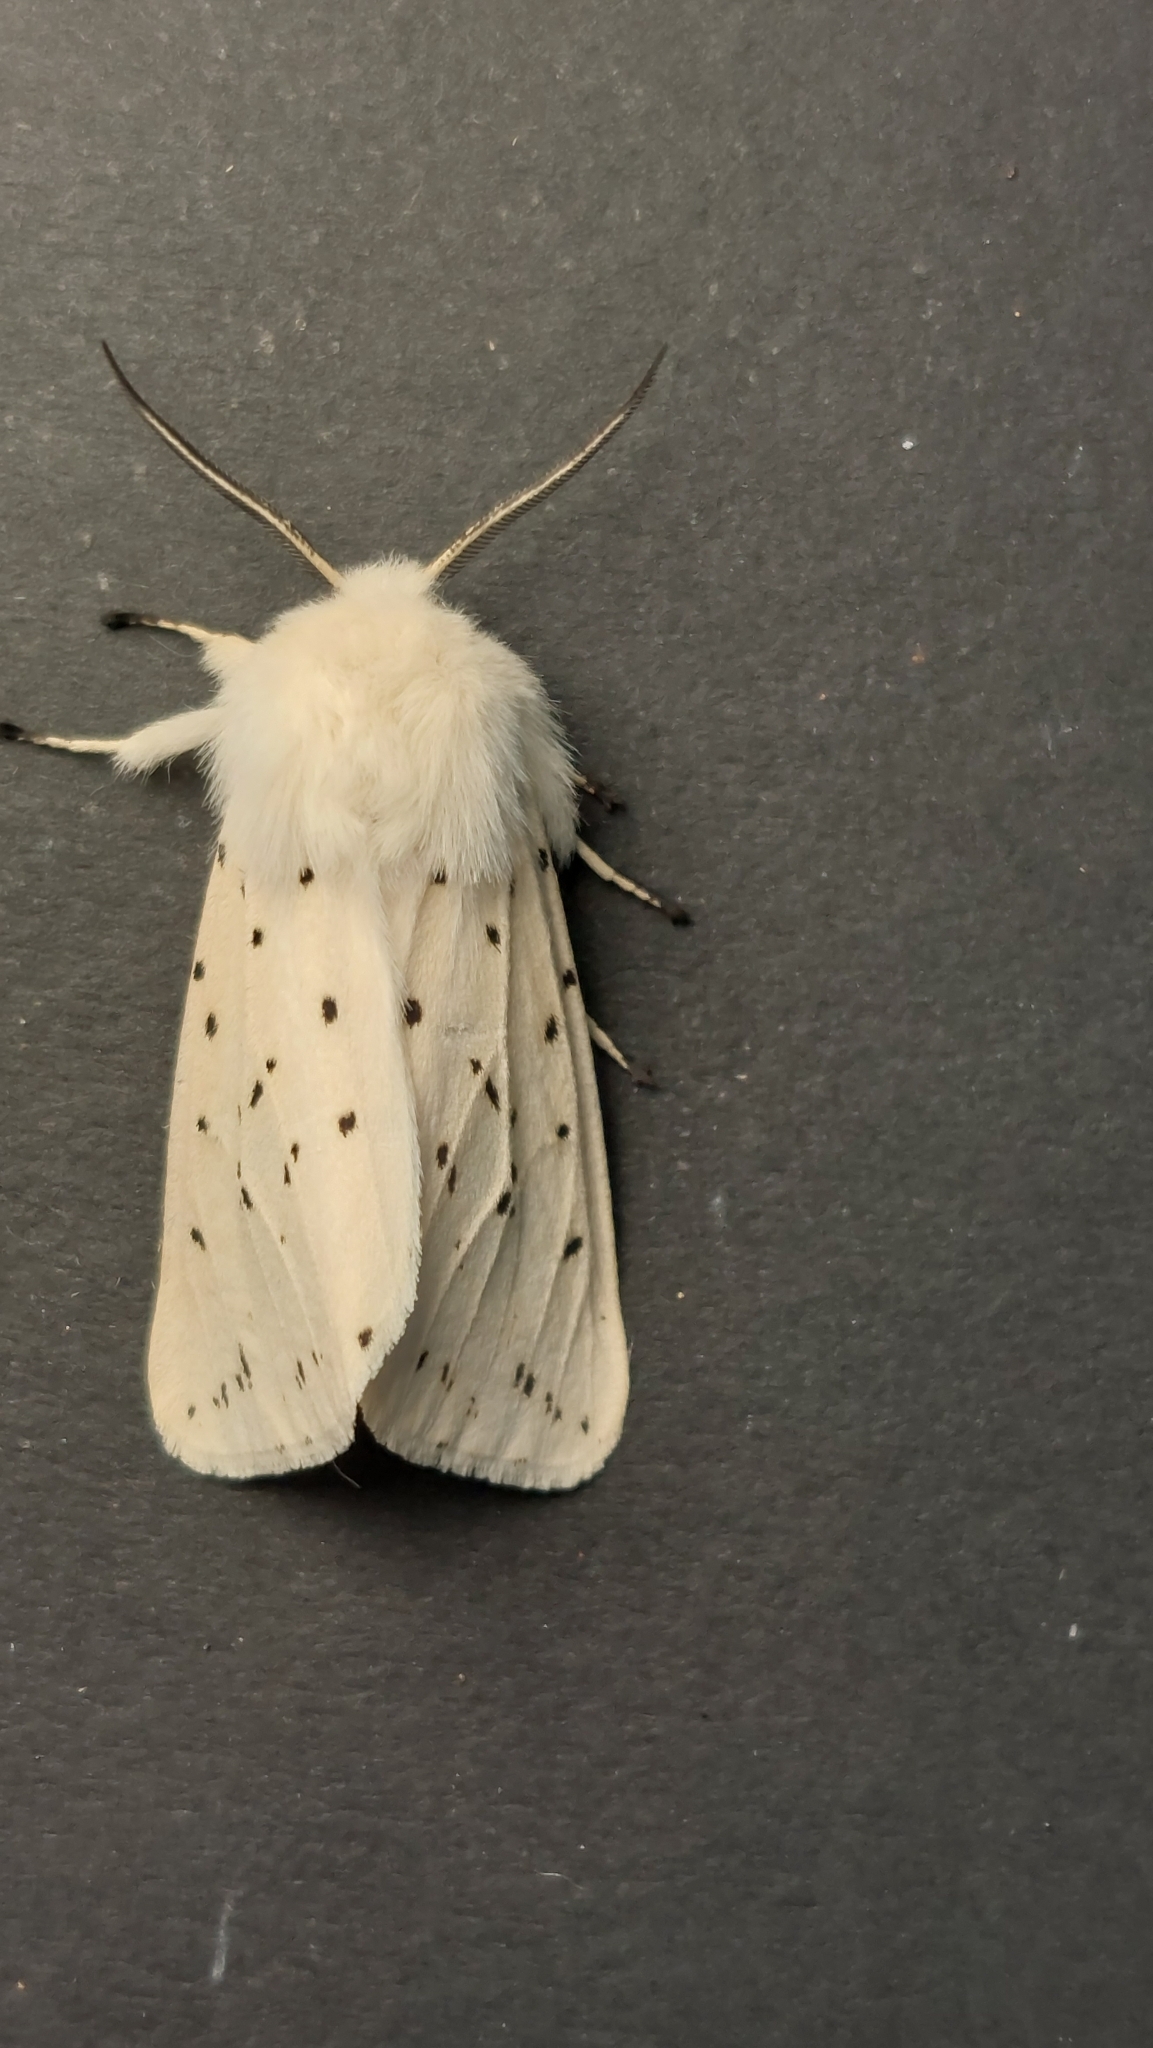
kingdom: Animalia
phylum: Arthropoda
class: Insecta
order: Lepidoptera
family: Erebidae
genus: Spilosoma
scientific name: Spilosoma lubricipeda
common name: White ermine
